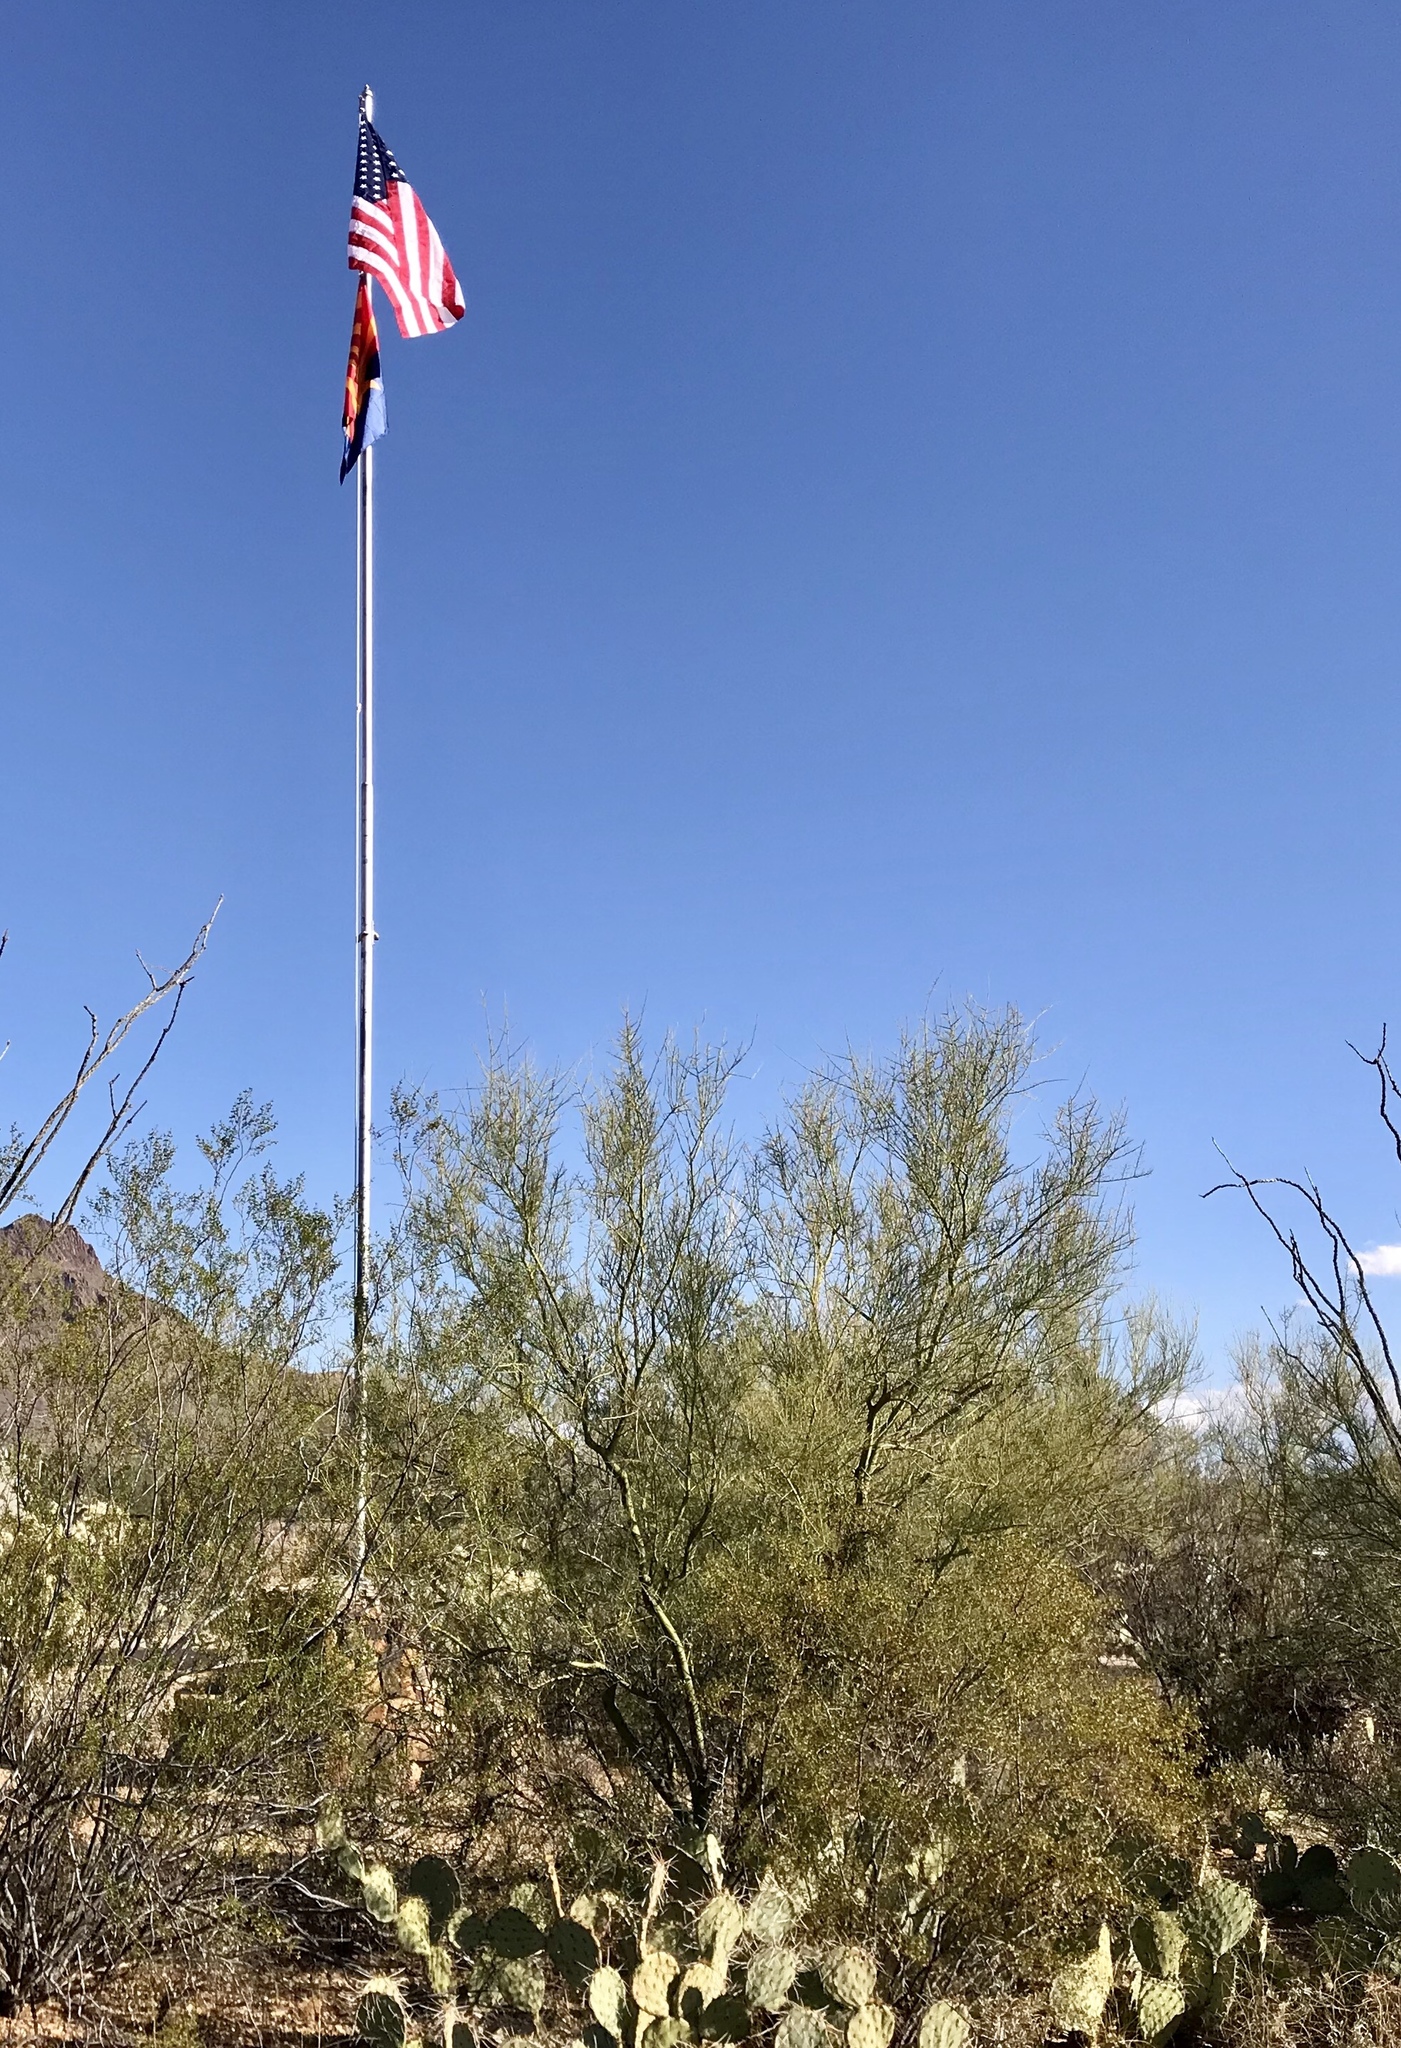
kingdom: Plantae
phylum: Tracheophyta
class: Magnoliopsida
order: Fabales
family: Fabaceae
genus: Parkinsonia
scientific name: Parkinsonia microphylla
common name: Yellow paloverde
